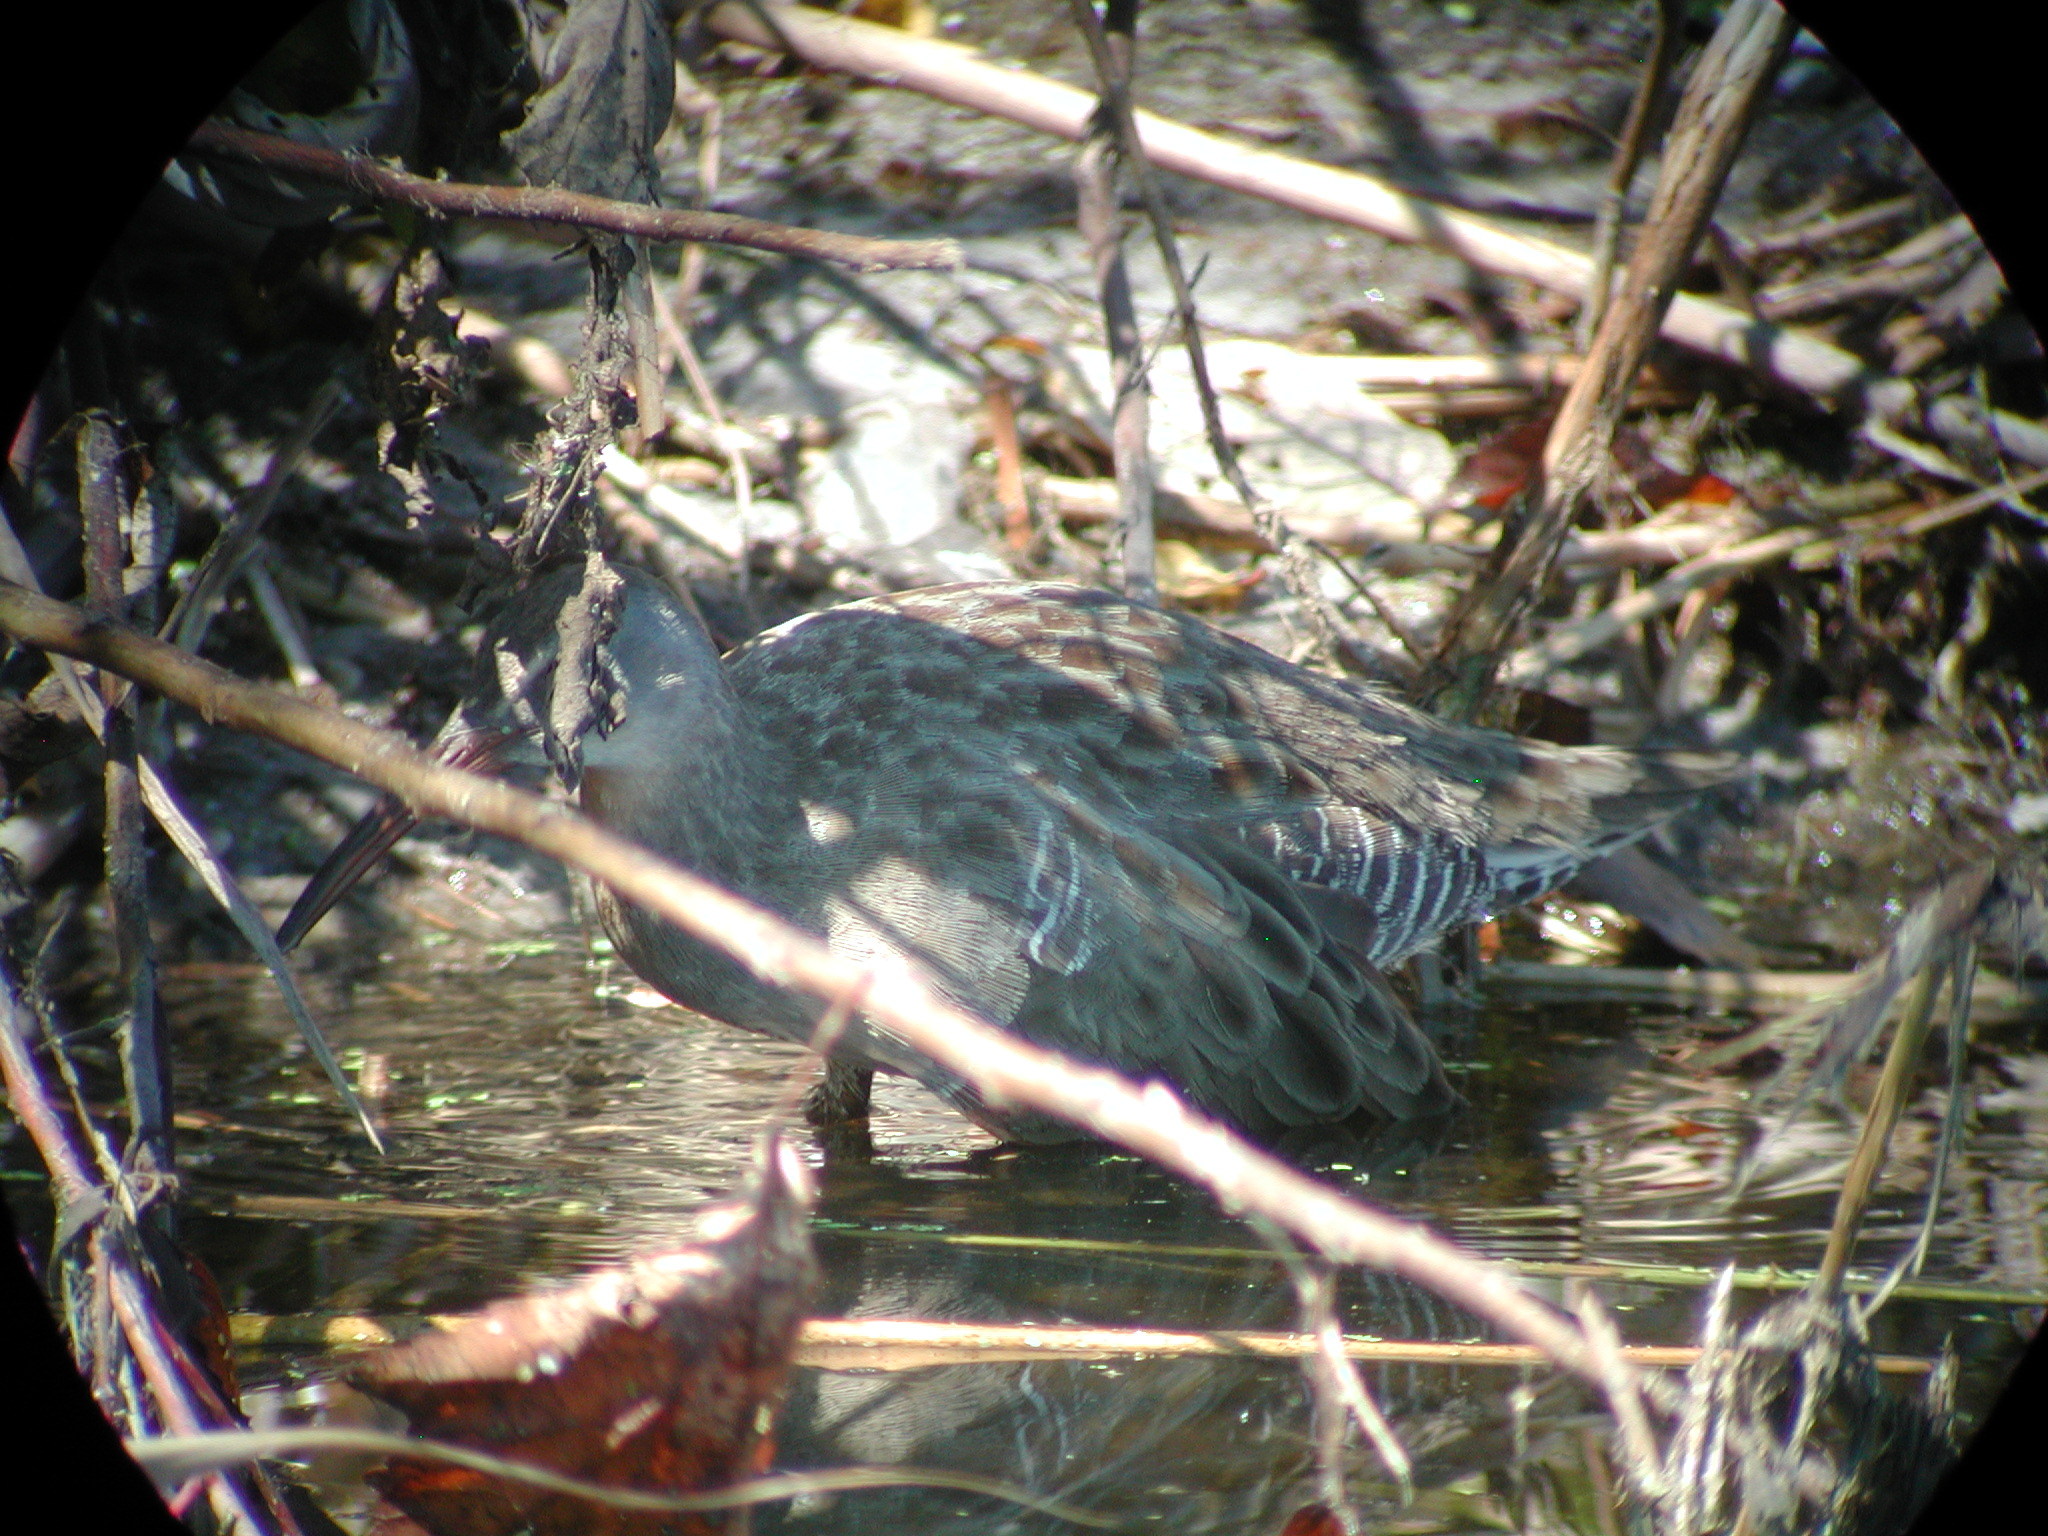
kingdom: Animalia
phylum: Chordata
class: Aves
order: Gruiformes
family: Rallidae
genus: Rallus
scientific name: Rallus crepitans
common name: Clapper rail
